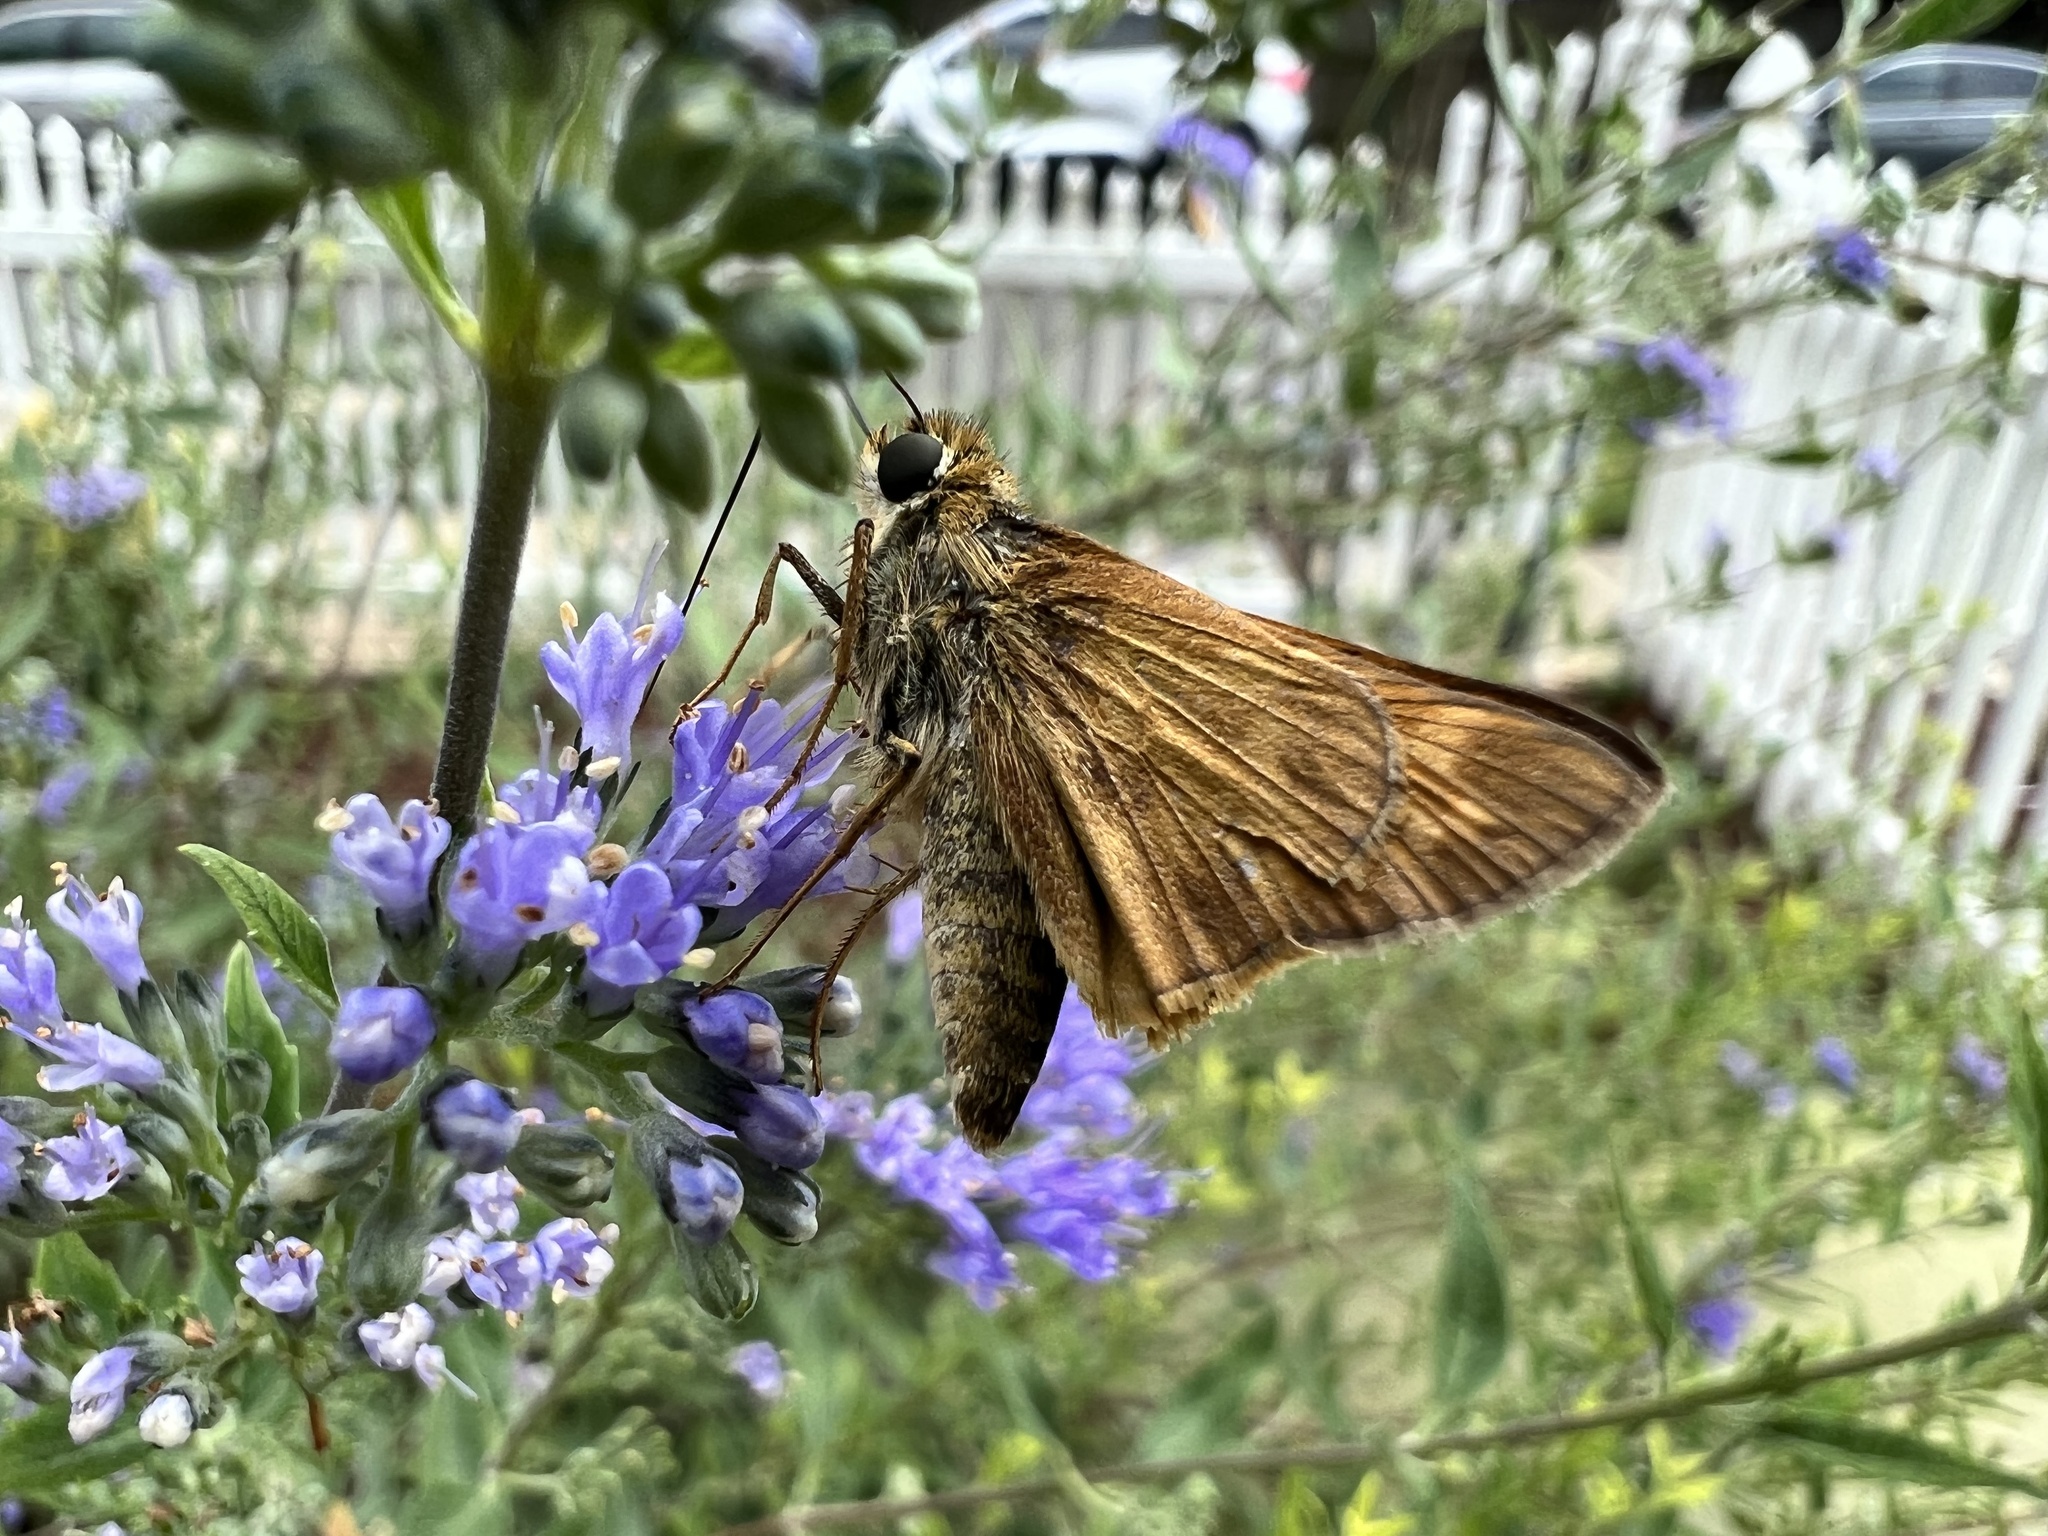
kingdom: Animalia
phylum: Arthropoda
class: Insecta
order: Lepidoptera
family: Hesperiidae
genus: Atalopedes
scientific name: Atalopedes
